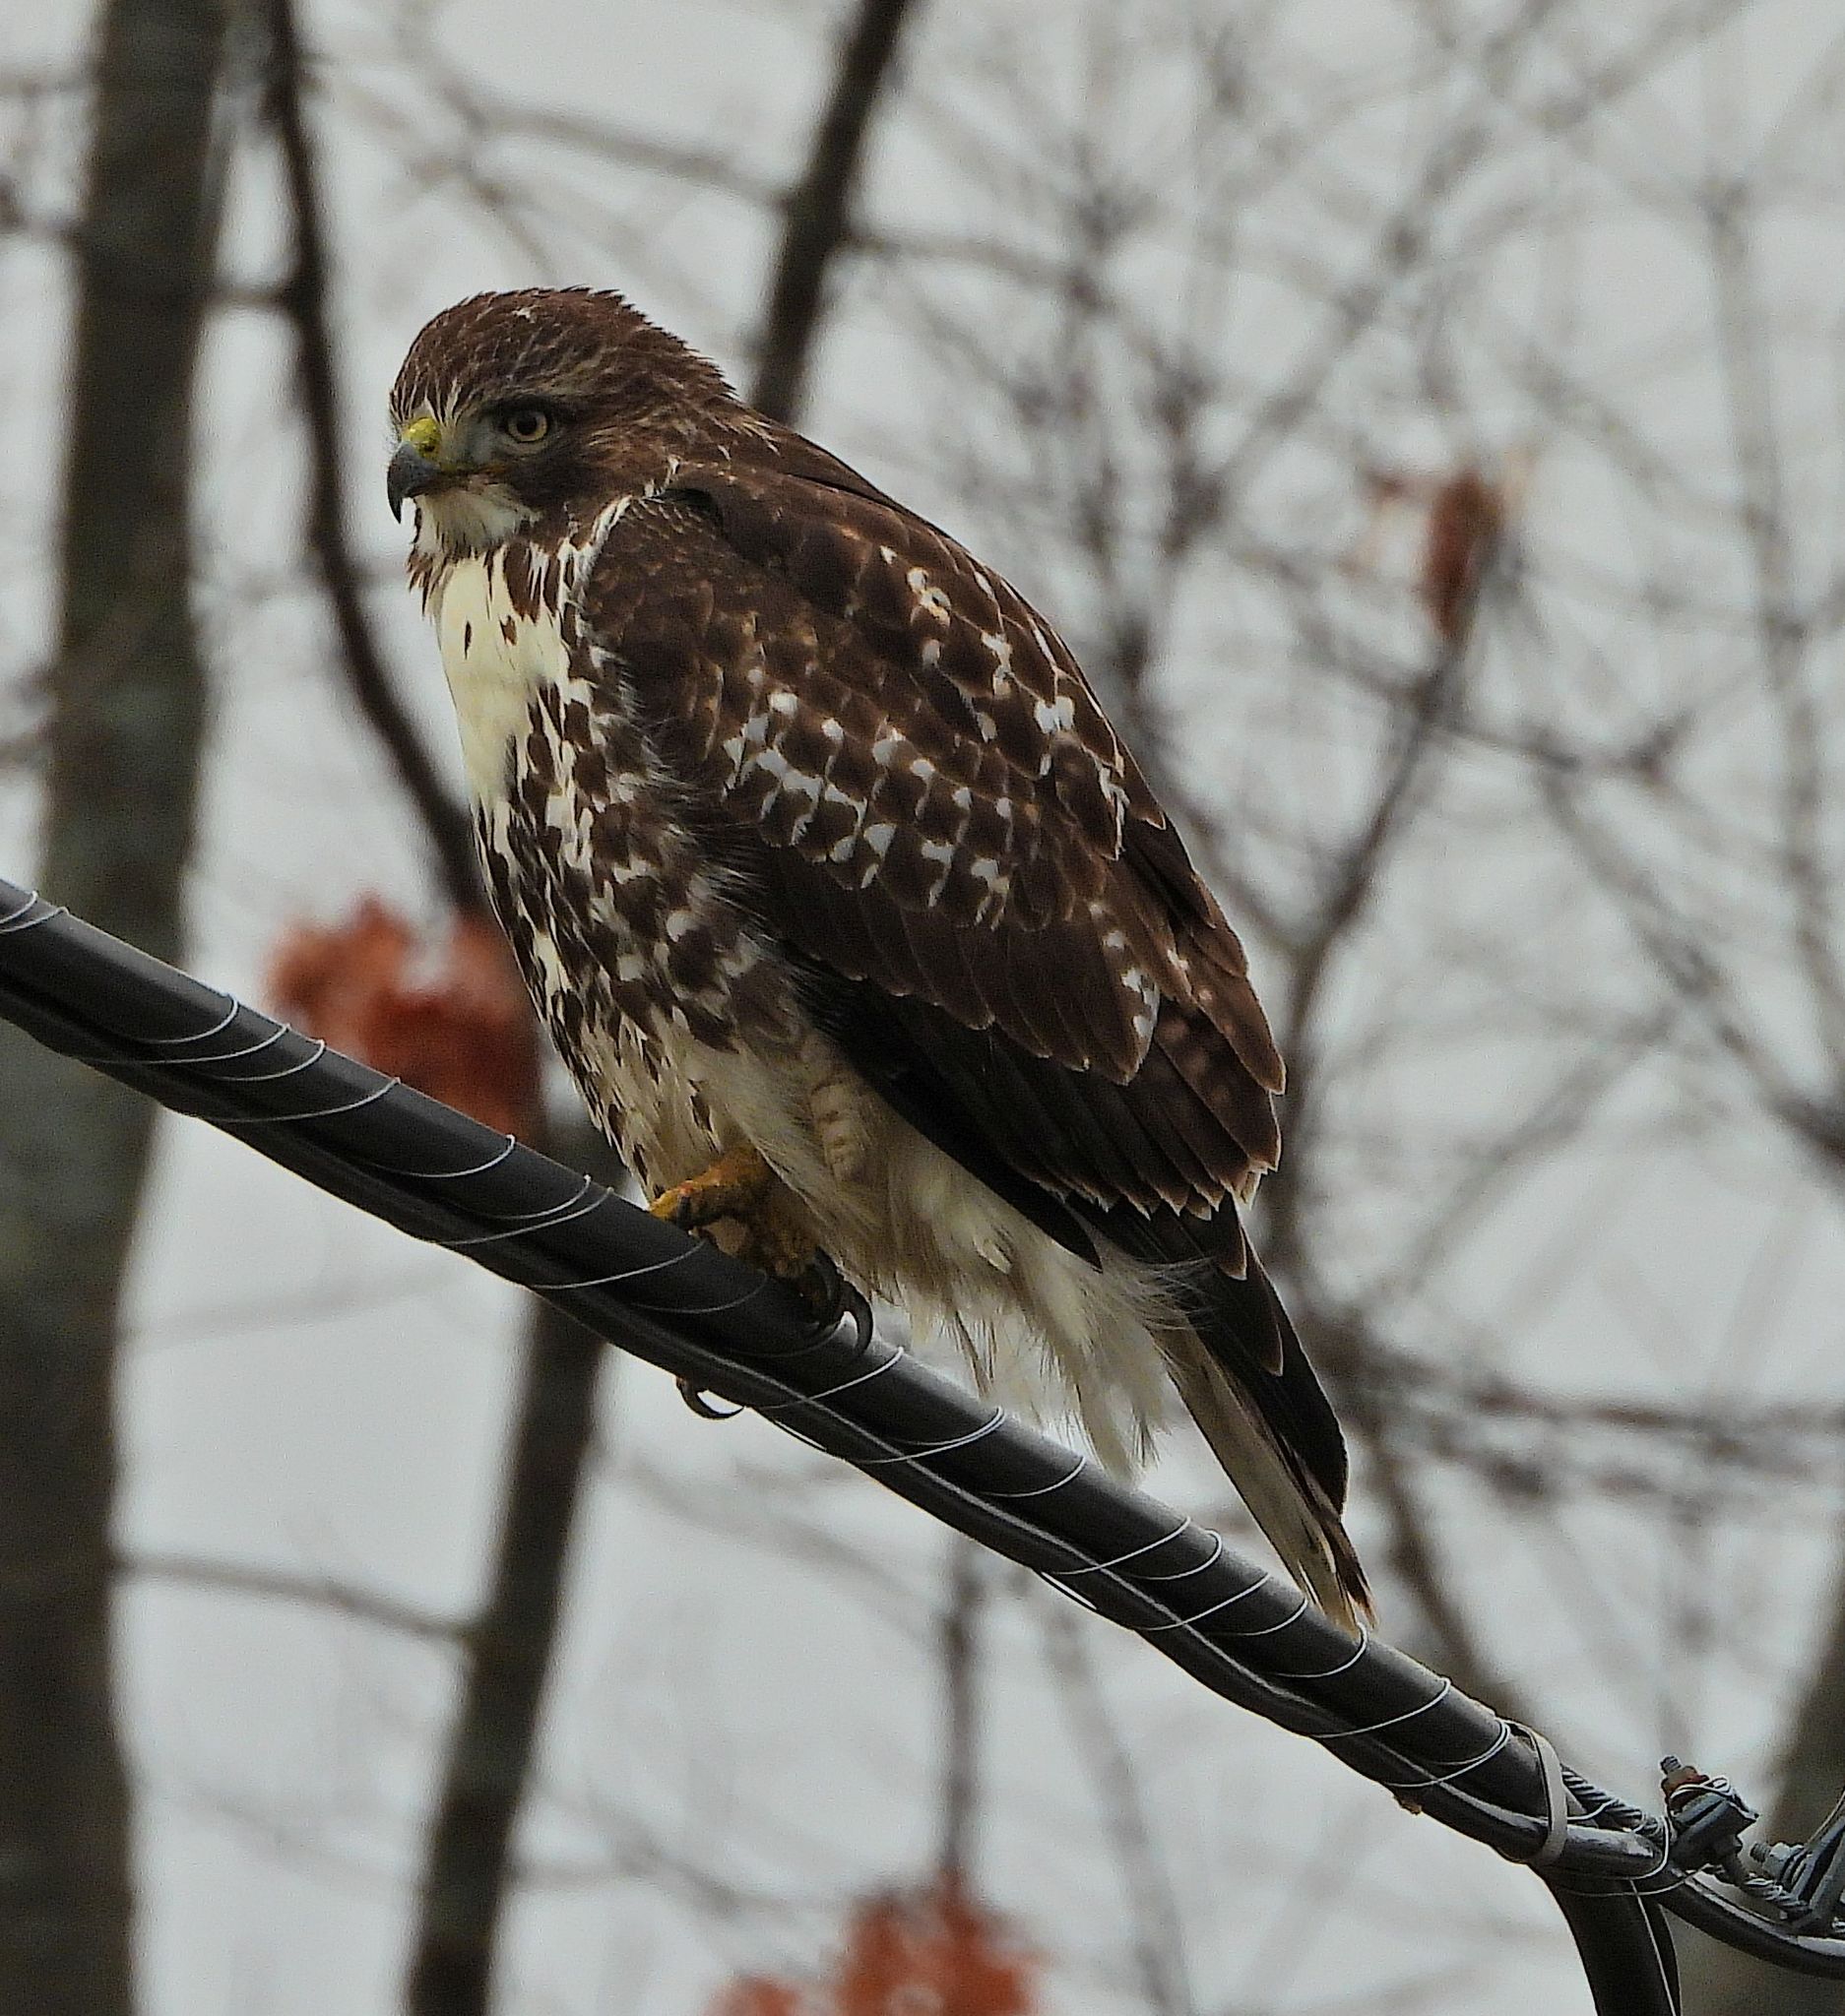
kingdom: Animalia
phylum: Chordata
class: Aves
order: Accipitriformes
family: Accipitridae
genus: Buteo
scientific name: Buteo jamaicensis
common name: Red-tailed hawk
